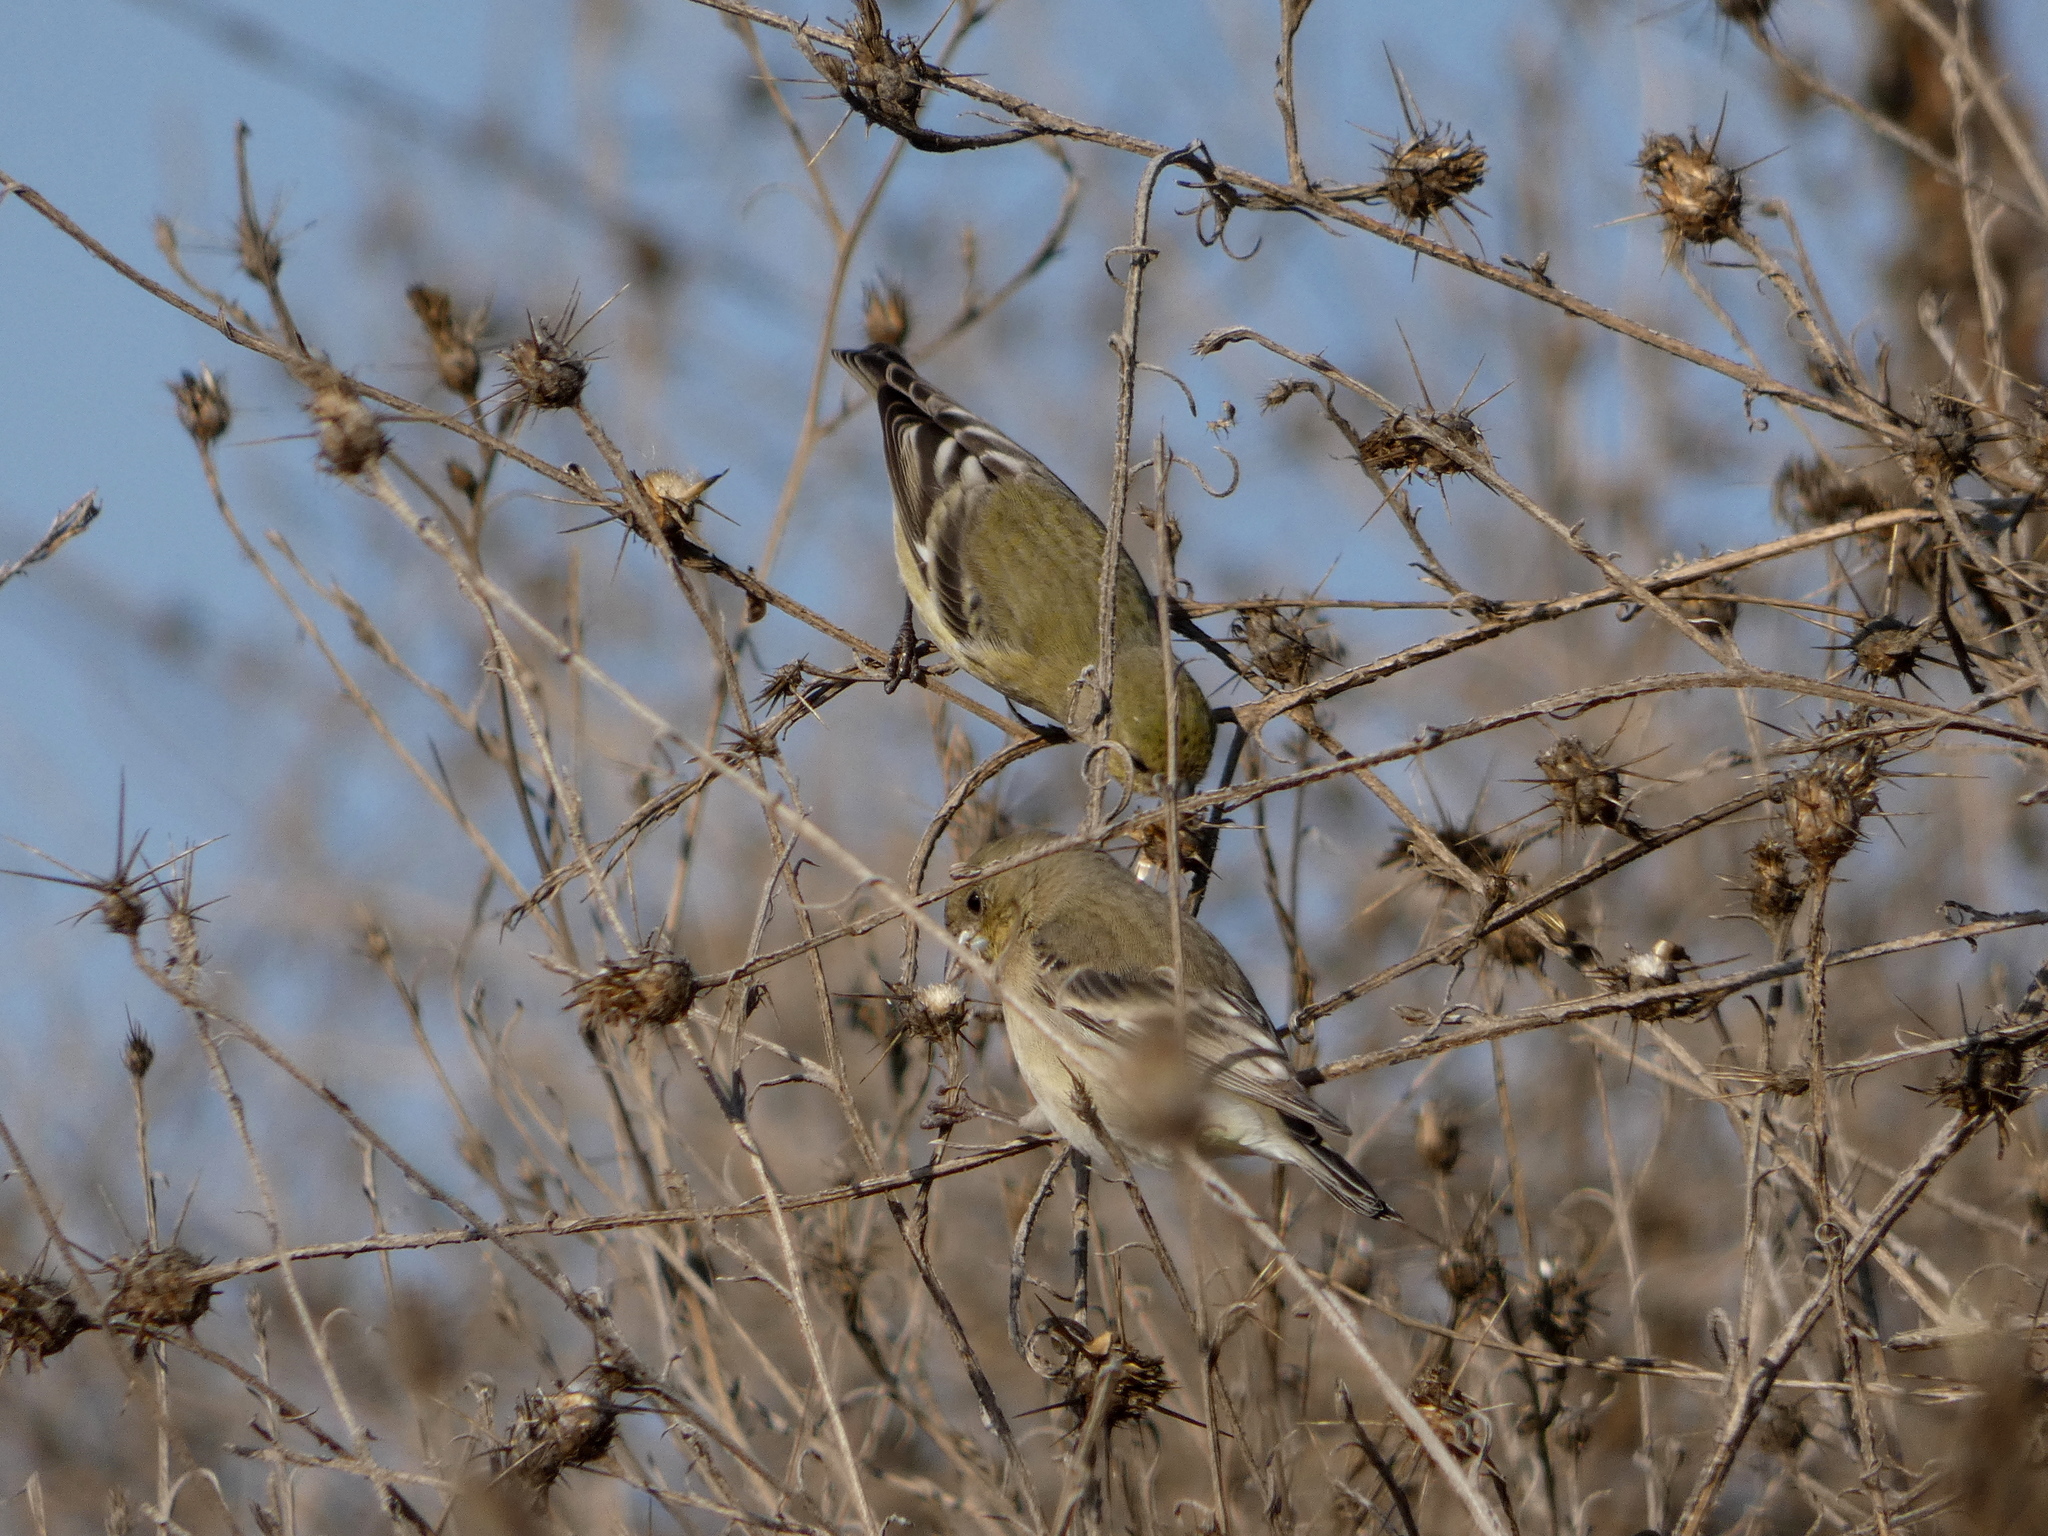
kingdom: Animalia
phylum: Chordata
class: Aves
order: Passeriformes
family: Fringillidae
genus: Spinus
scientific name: Spinus psaltria
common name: Lesser goldfinch
